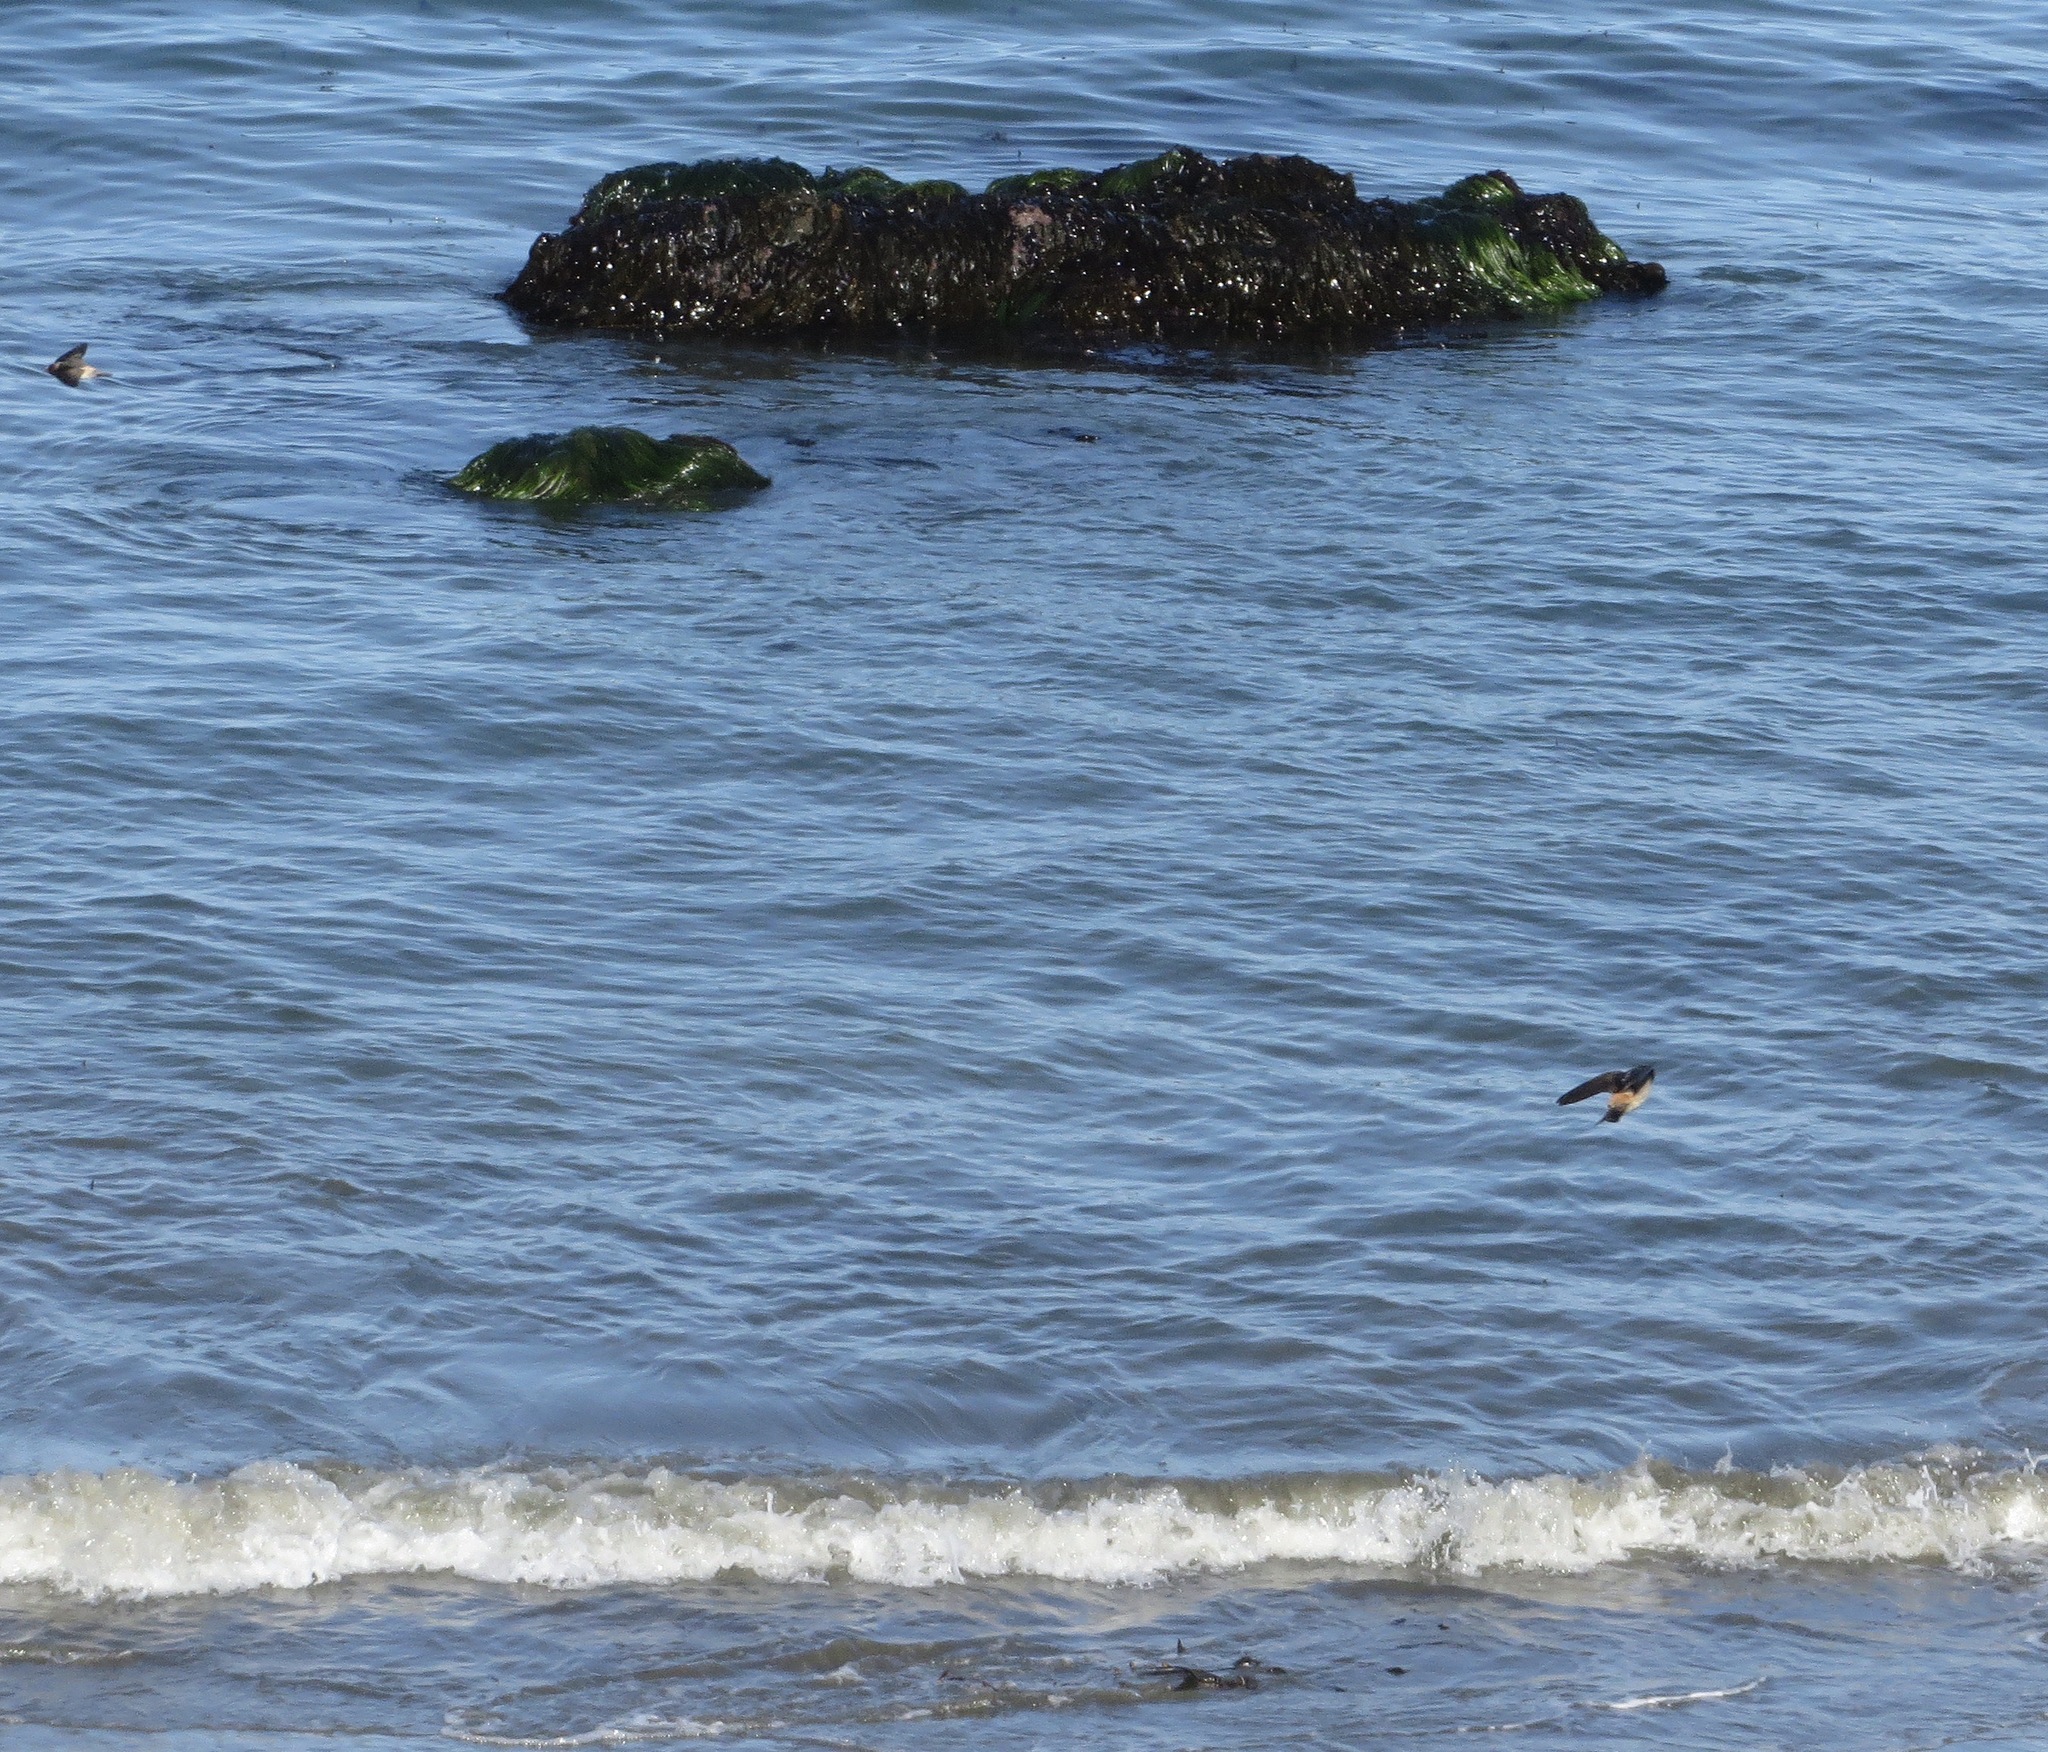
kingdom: Animalia
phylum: Chordata
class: Aves
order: Passeriformes
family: Hirundinidae
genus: Petrochelidon
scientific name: Petrochelidon pyrrhonota
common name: American cliff swallow
